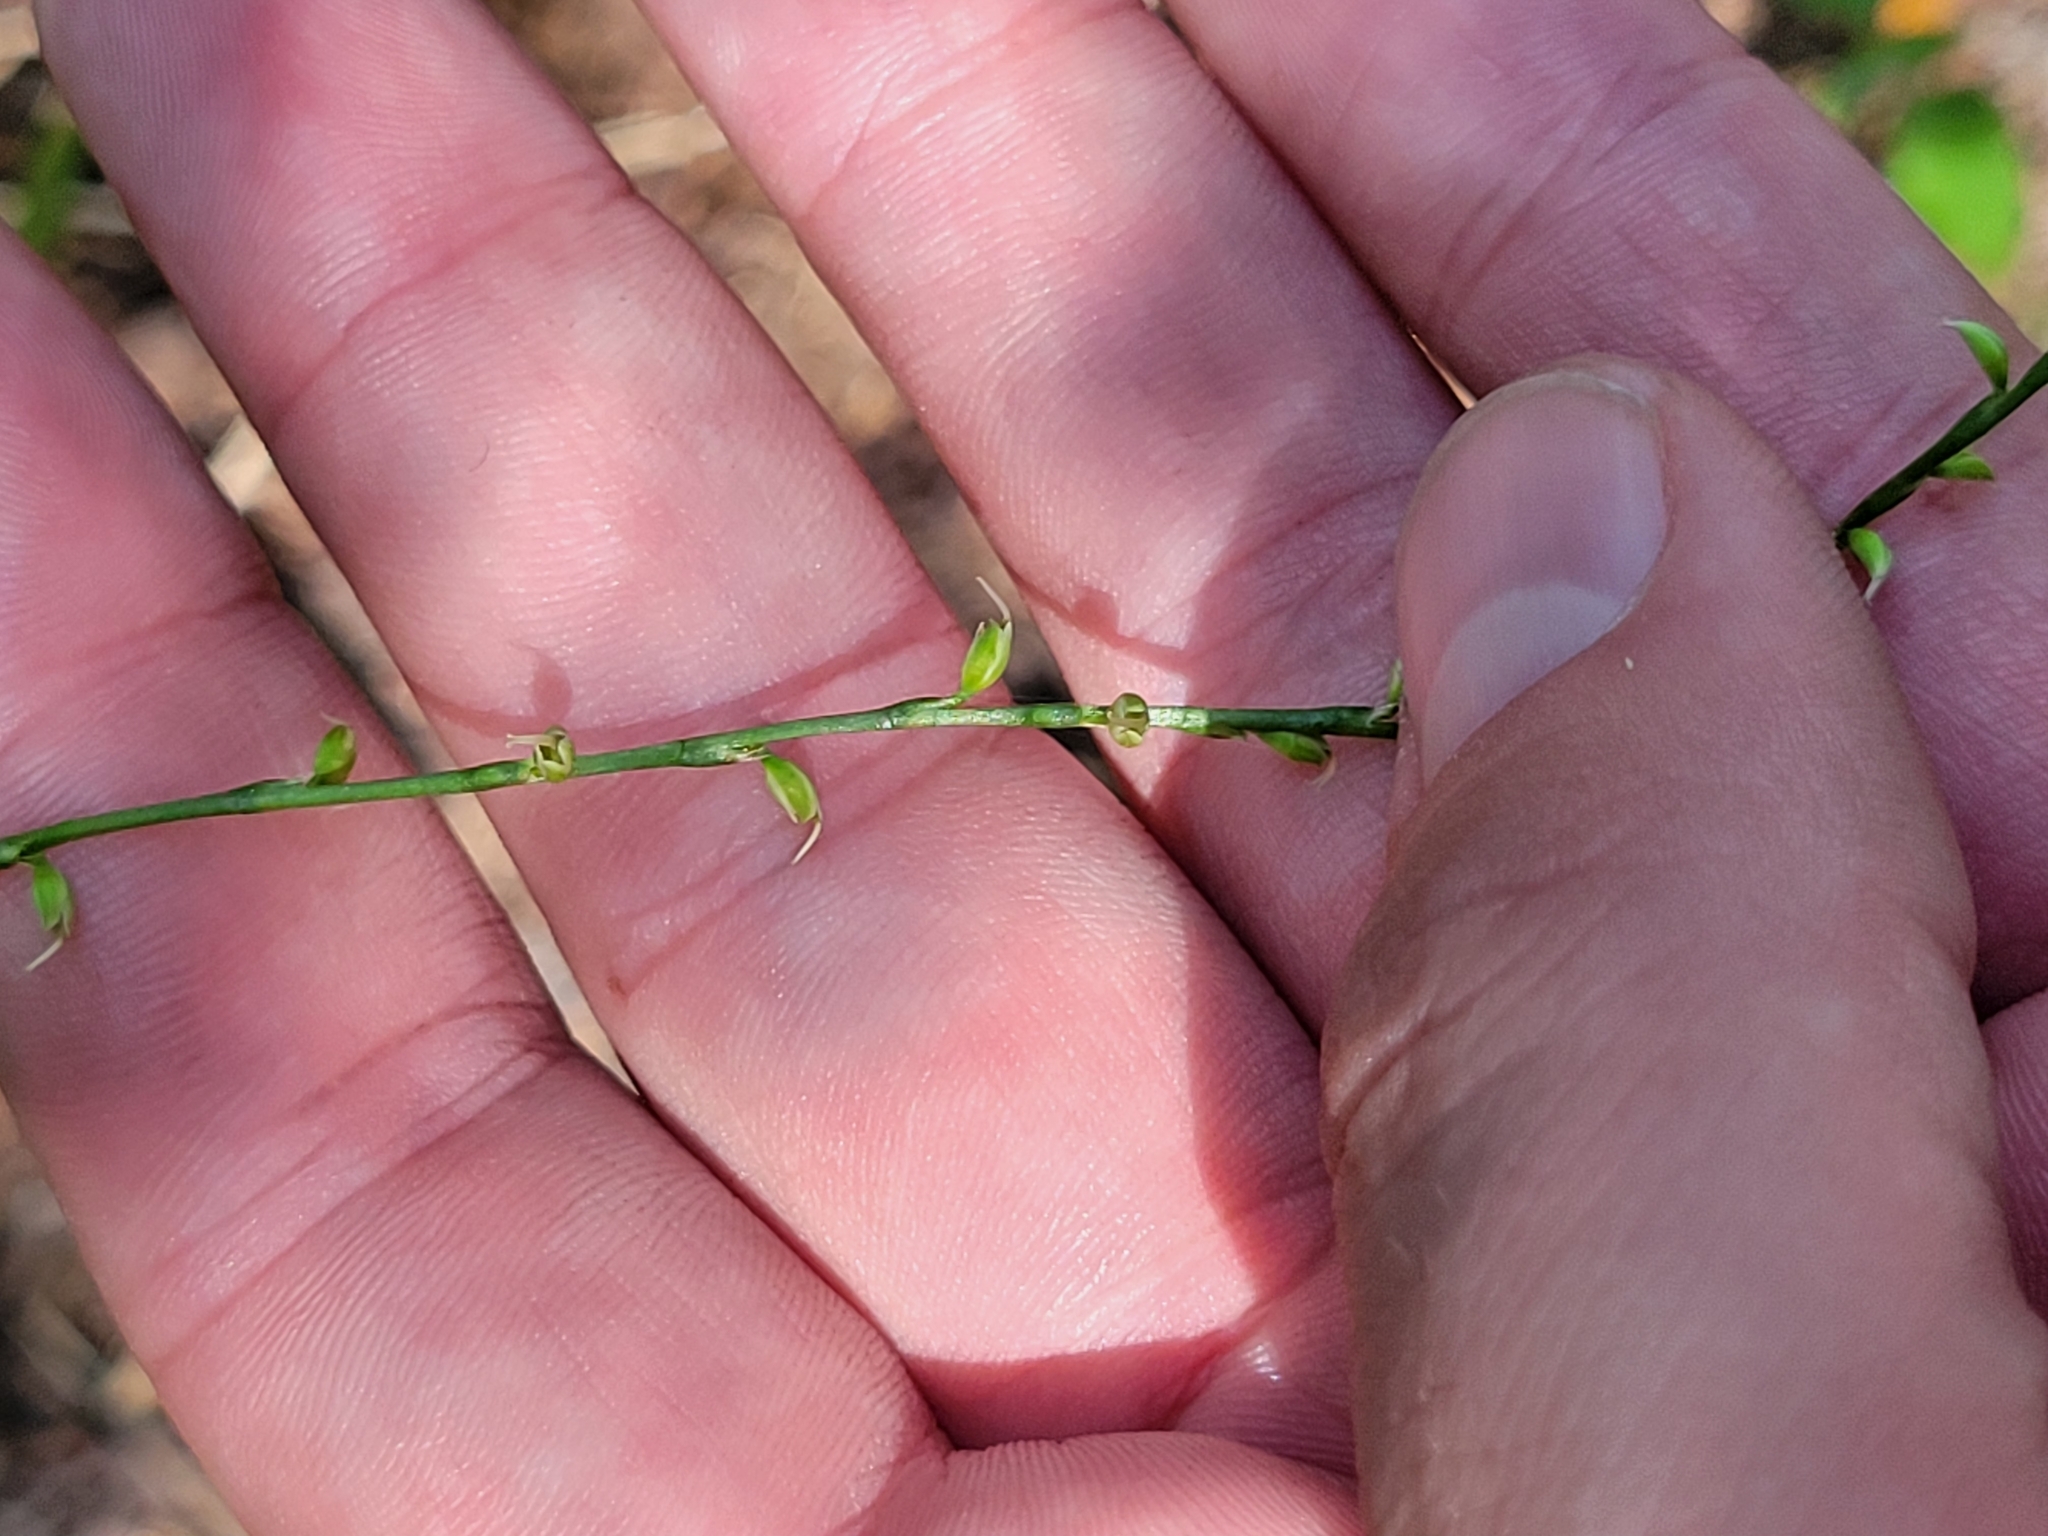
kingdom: Plantae
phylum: Tracheophyta
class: Magnoliopsida
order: Caryophyllales
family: Polygonaceae
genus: Persicaria
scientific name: Persicaria virginiana
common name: Jumpseed
